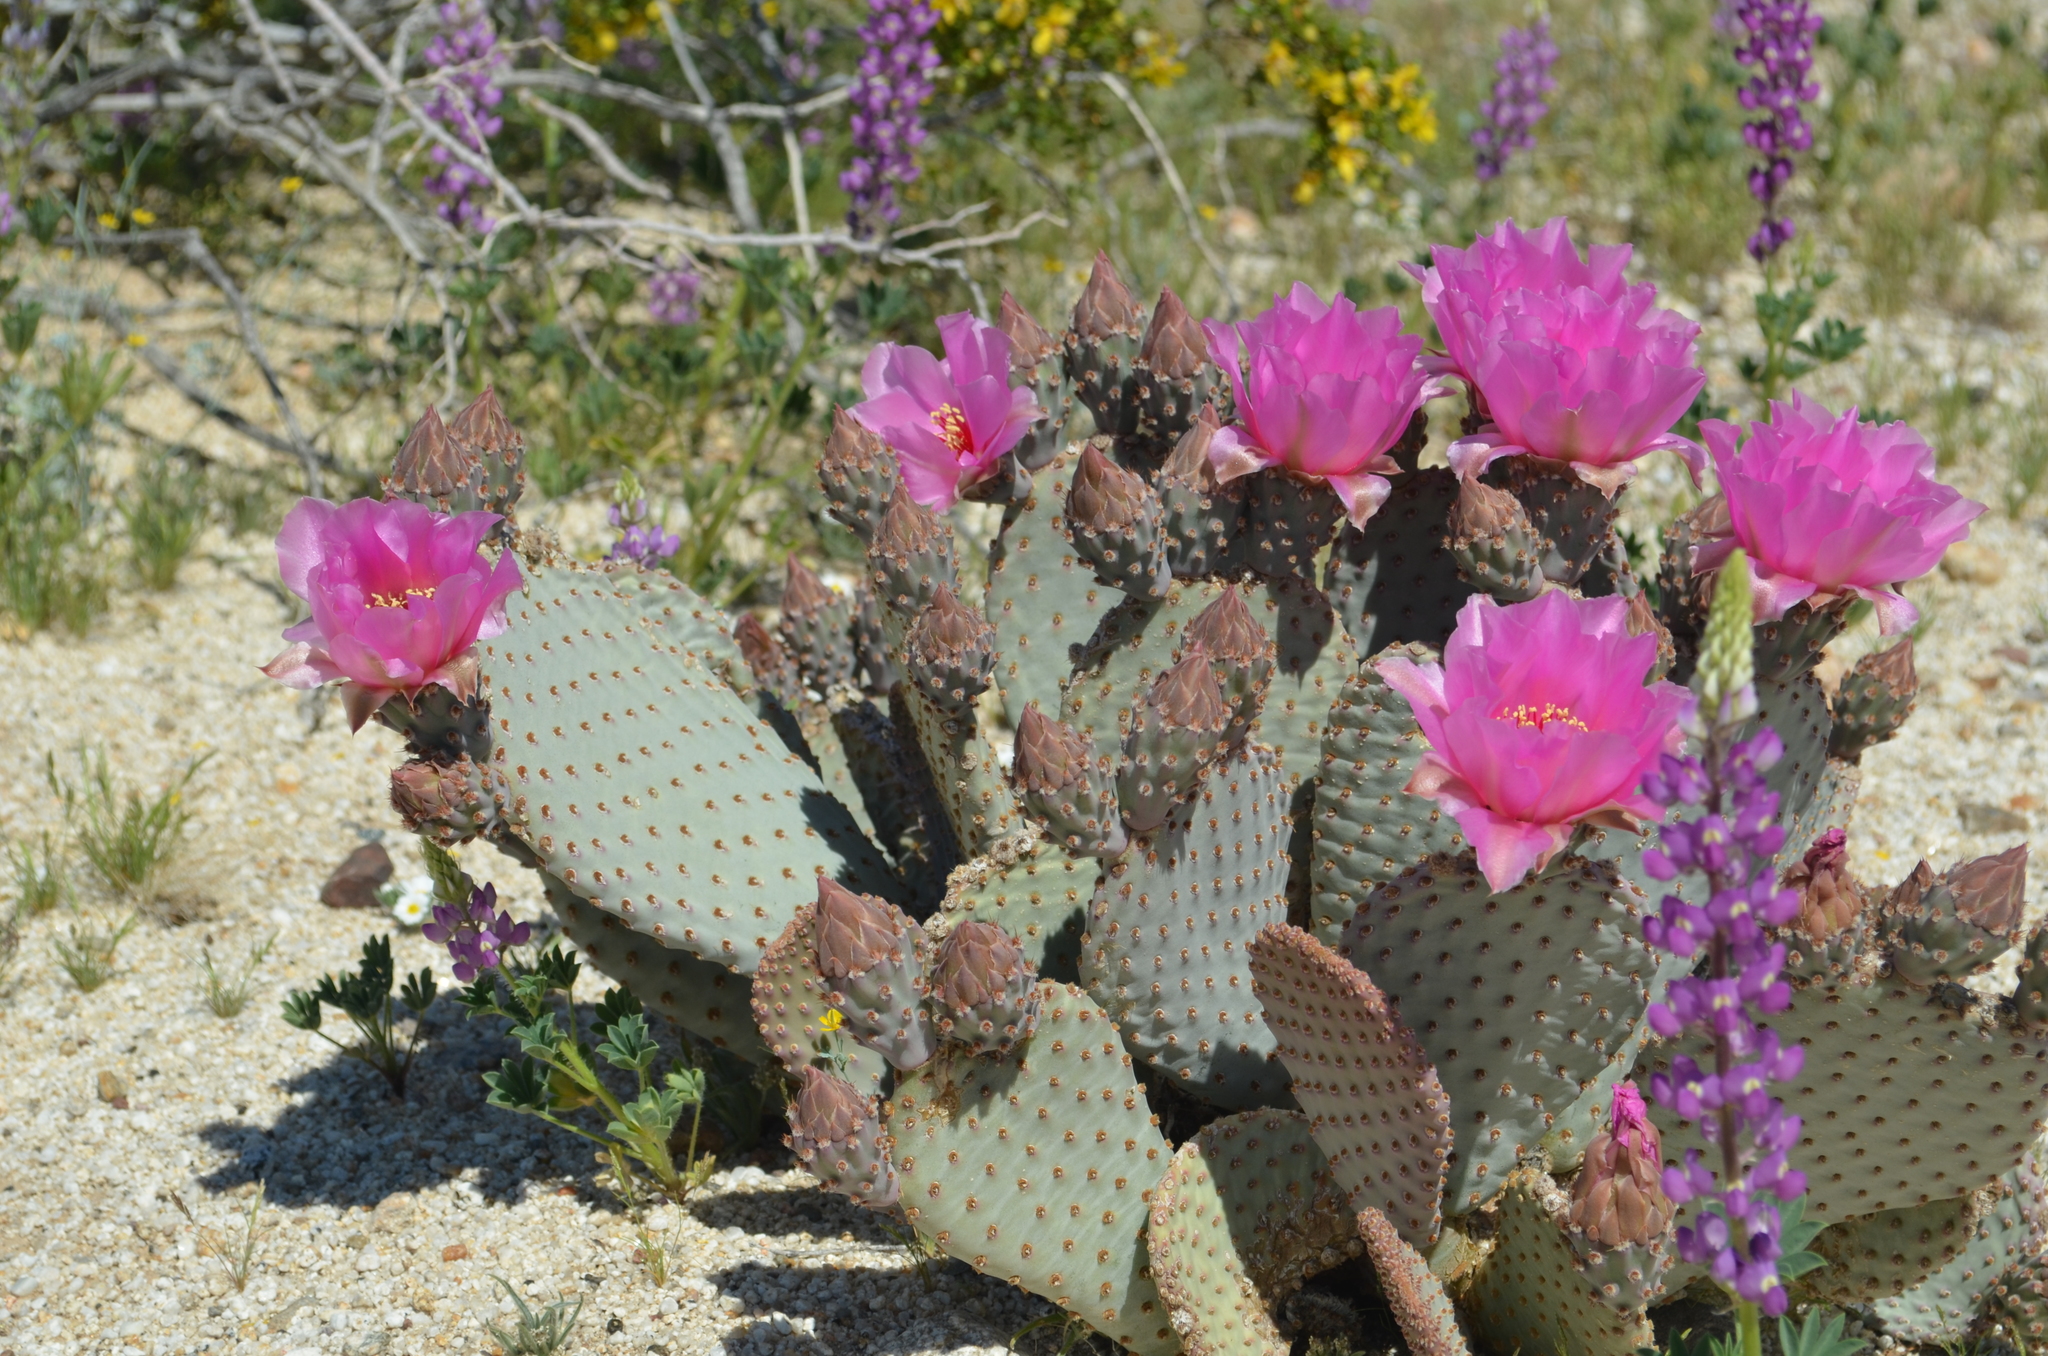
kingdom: Plantae
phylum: Tracheophyta
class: Magnoliopsida
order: Caryophyllales
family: Cactaceae
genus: Opuntia
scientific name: Opuntia basilaris
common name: Beavertail prickly-pear
